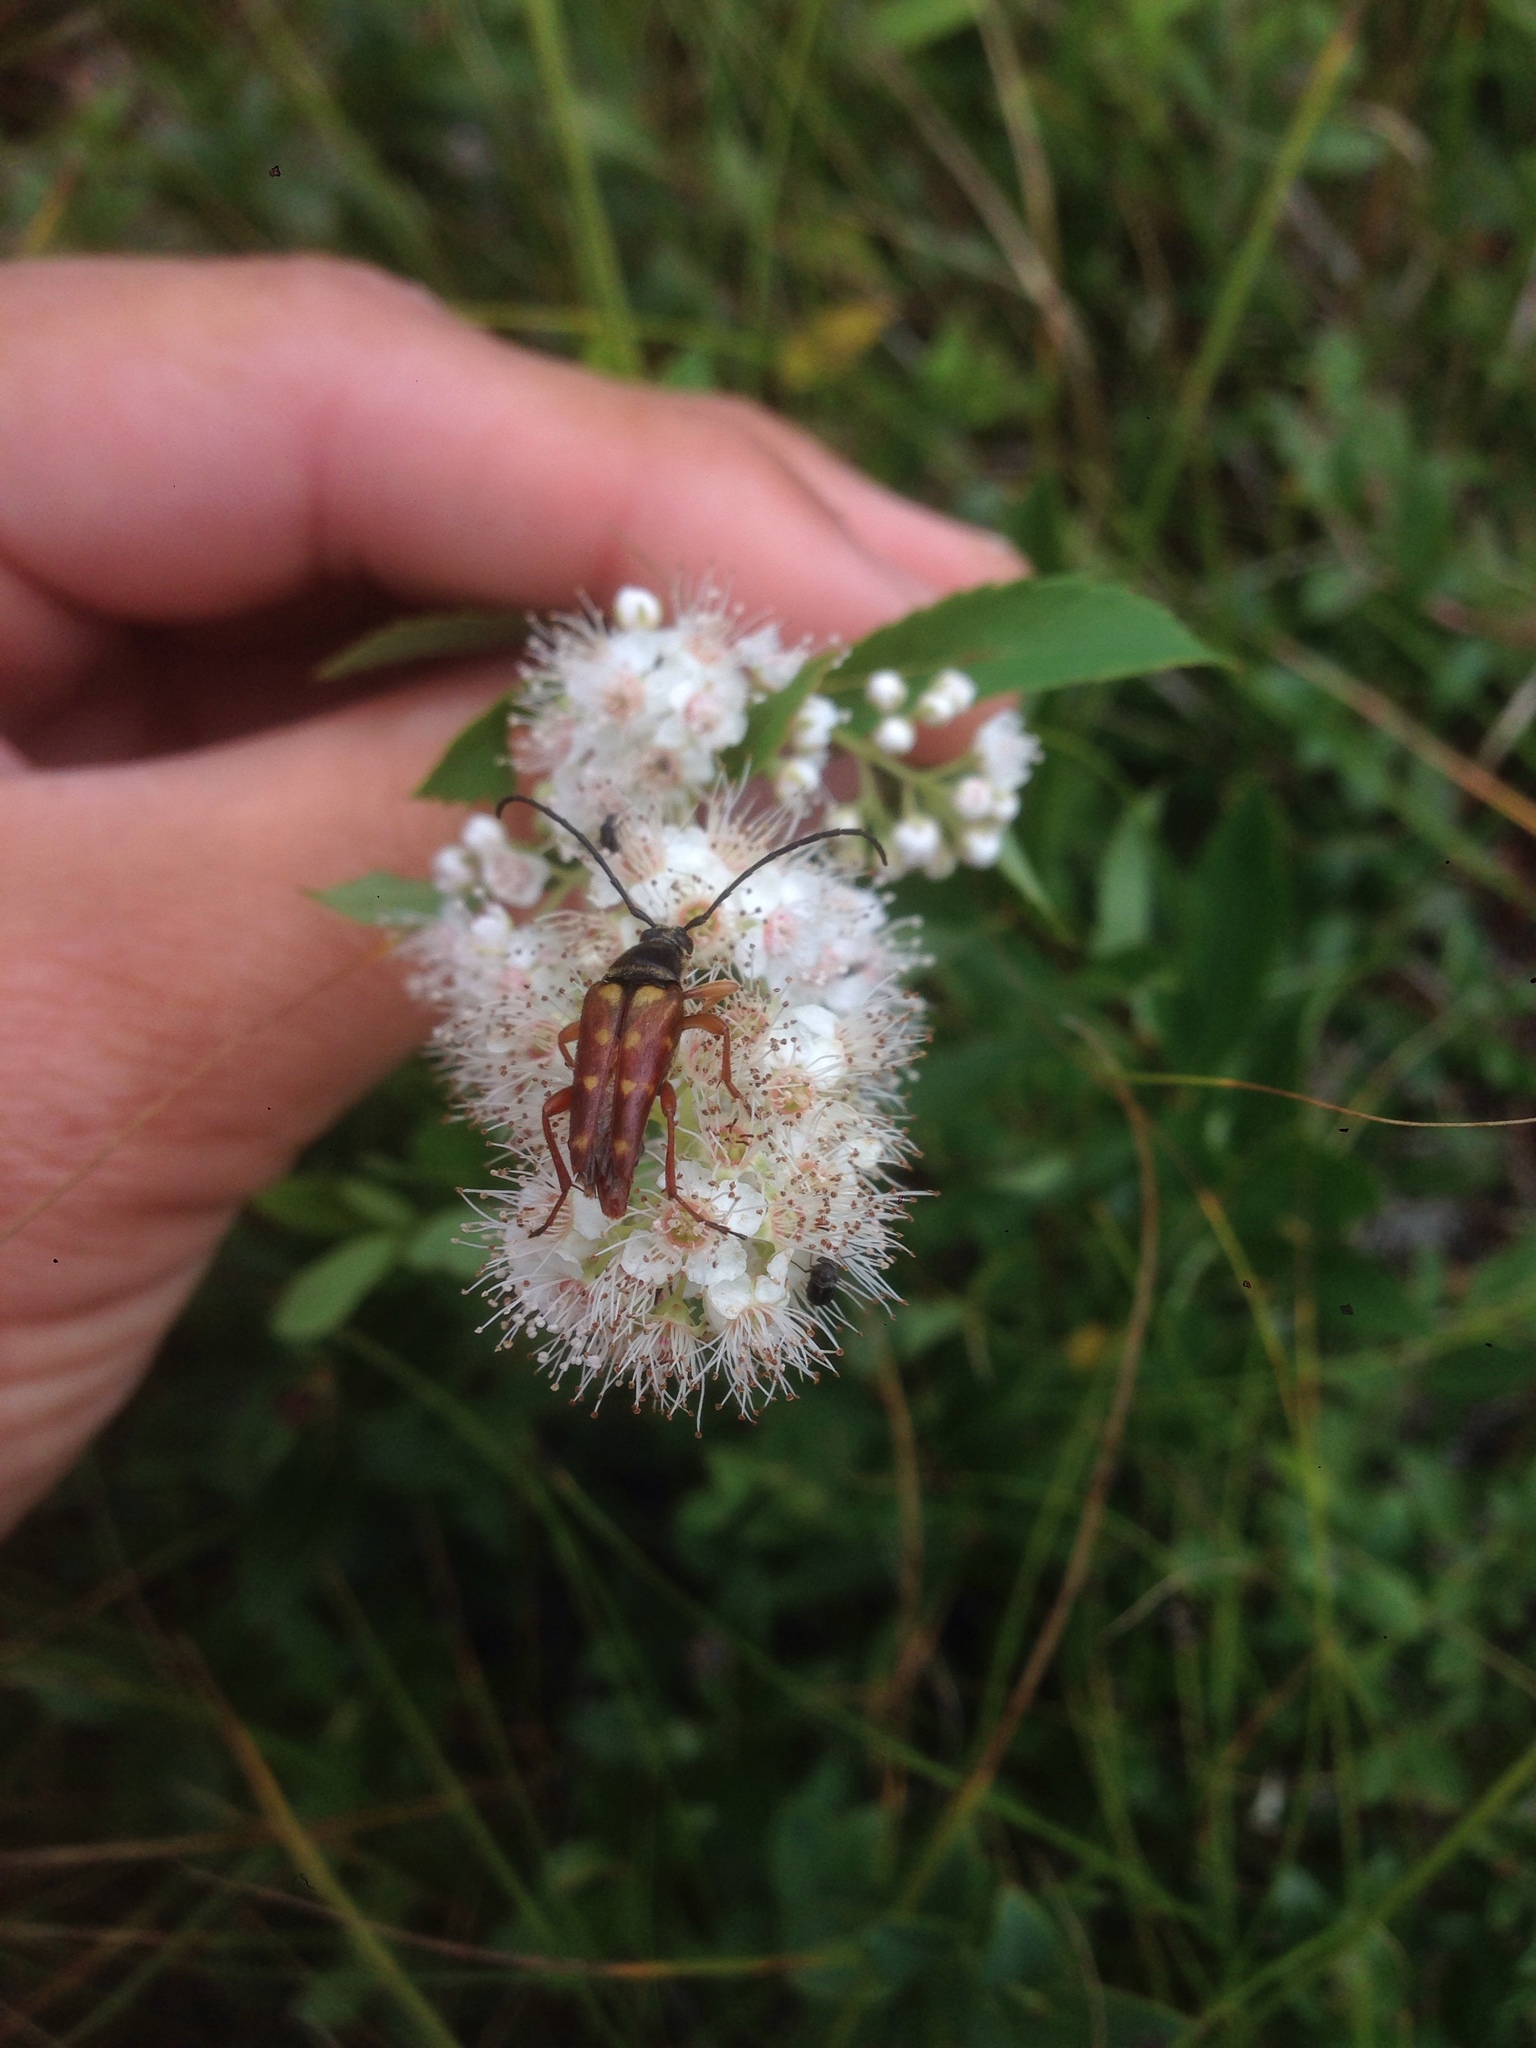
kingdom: Animalia
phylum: Arthropoda
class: Insecta
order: Coleoptera
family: Cerambycidae
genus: Typocerus
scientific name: Typocerus velutinus
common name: Banded longhorn beetle
